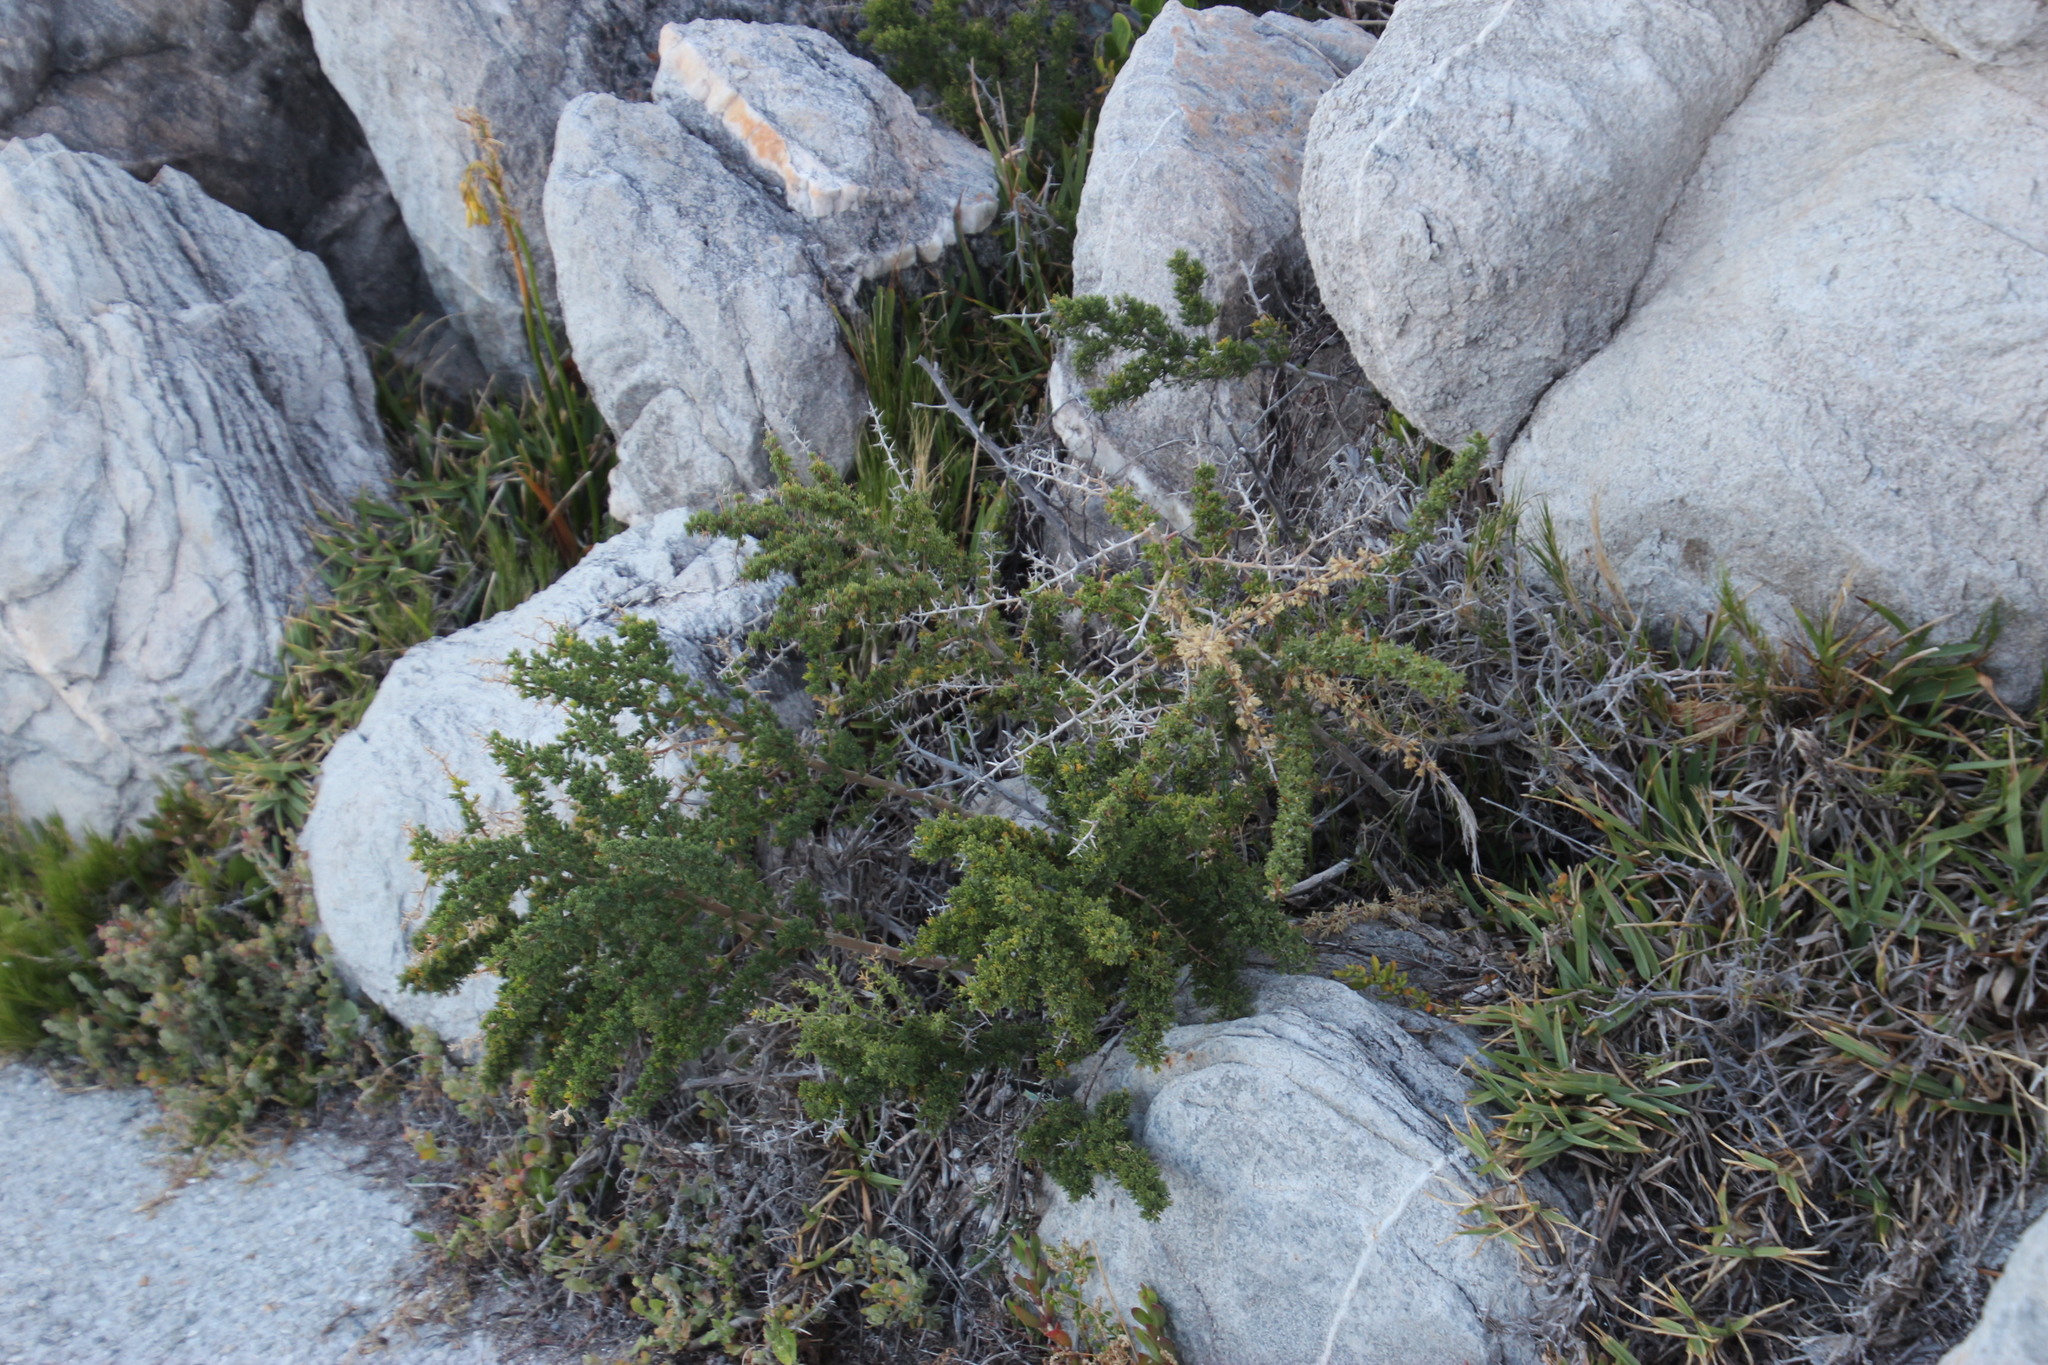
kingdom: Plantae
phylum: Tracheophyta
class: Liliopsida
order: Asparagales
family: Asparagaceae
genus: Asparagus
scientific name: Asparagus capensis
